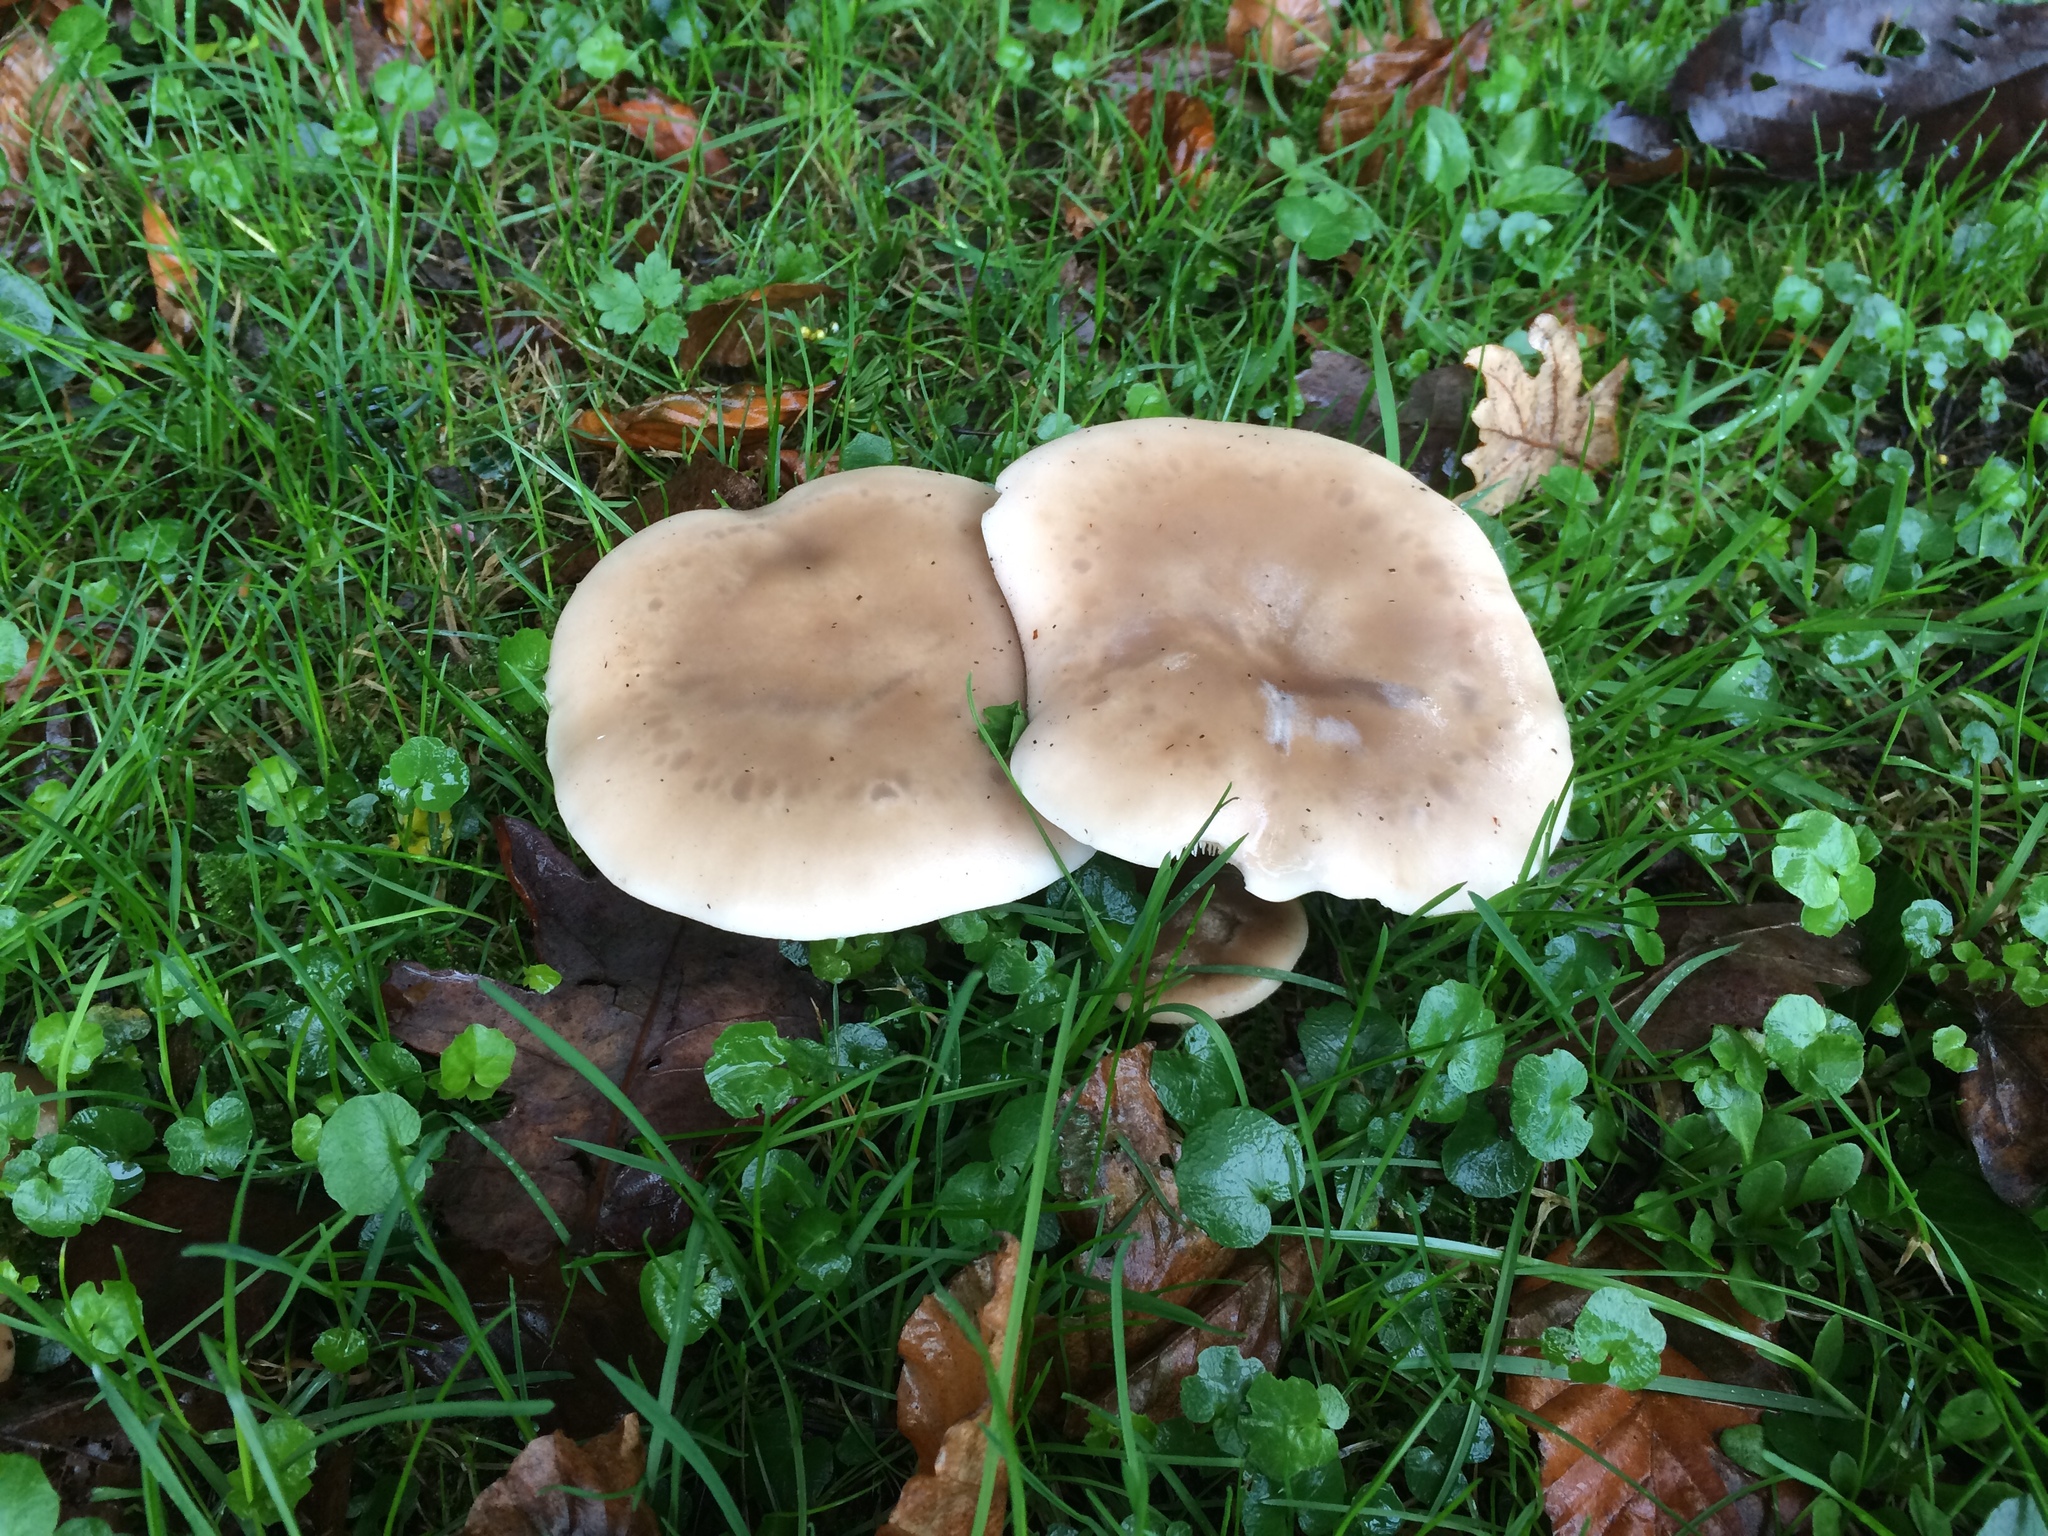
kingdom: Fungi
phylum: Basidiomycota
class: Agaricomycetes
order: Agaricales
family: Tricholomataceae
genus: Clitocybe
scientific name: Clitocybe nebularis
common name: Clouded agaric
